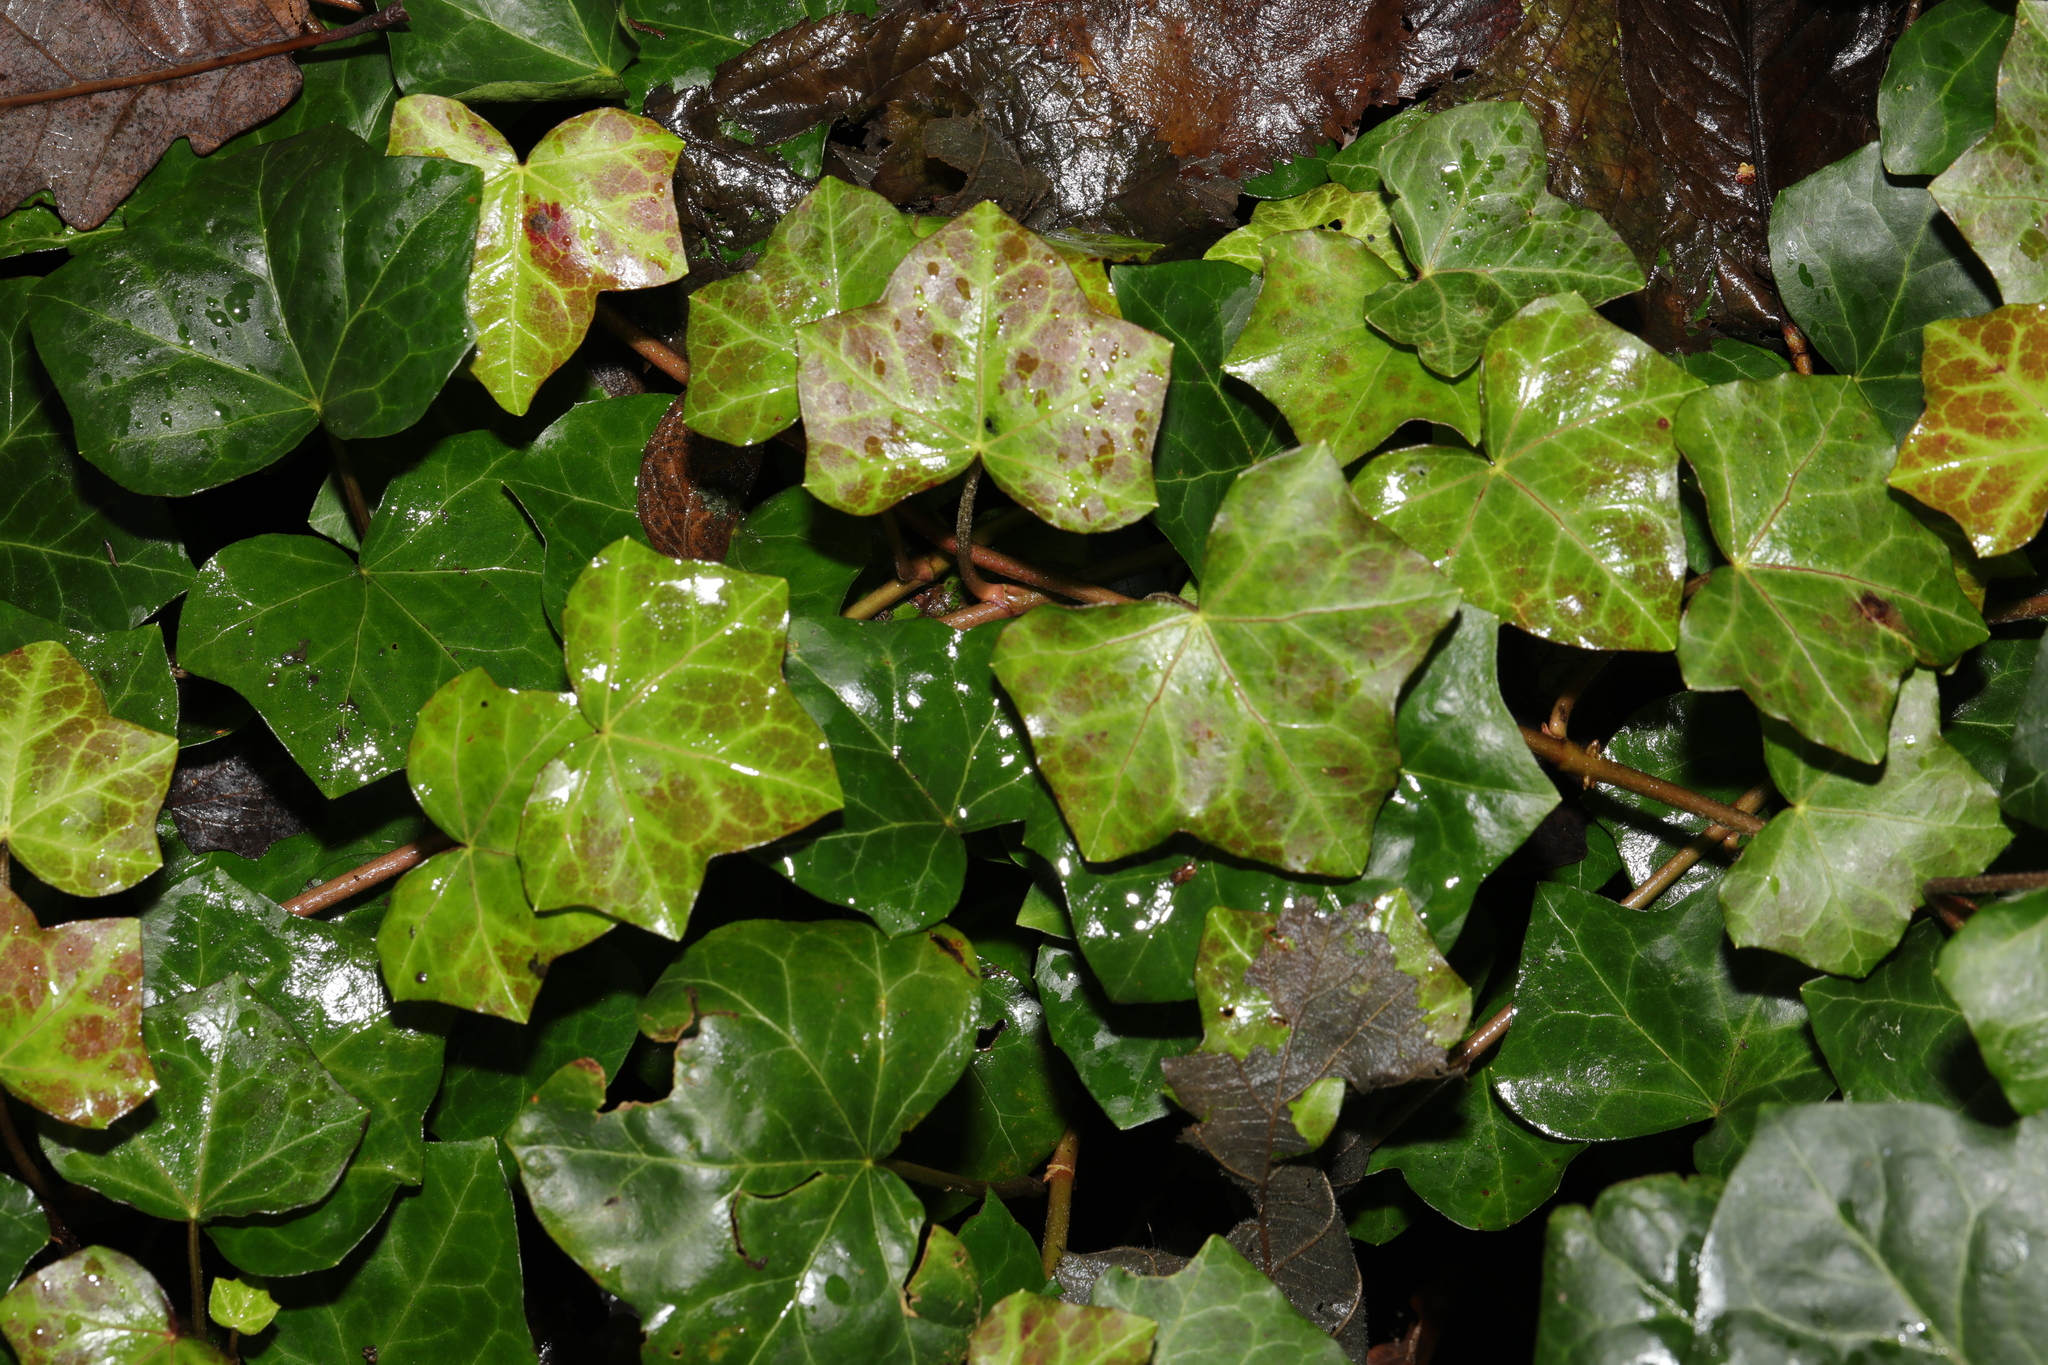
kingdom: Plantae
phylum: Tracheophyta
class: Magnoliopsida
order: Apiales
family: Araliaceae
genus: Hedera
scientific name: Hedera helix
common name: Ivy
